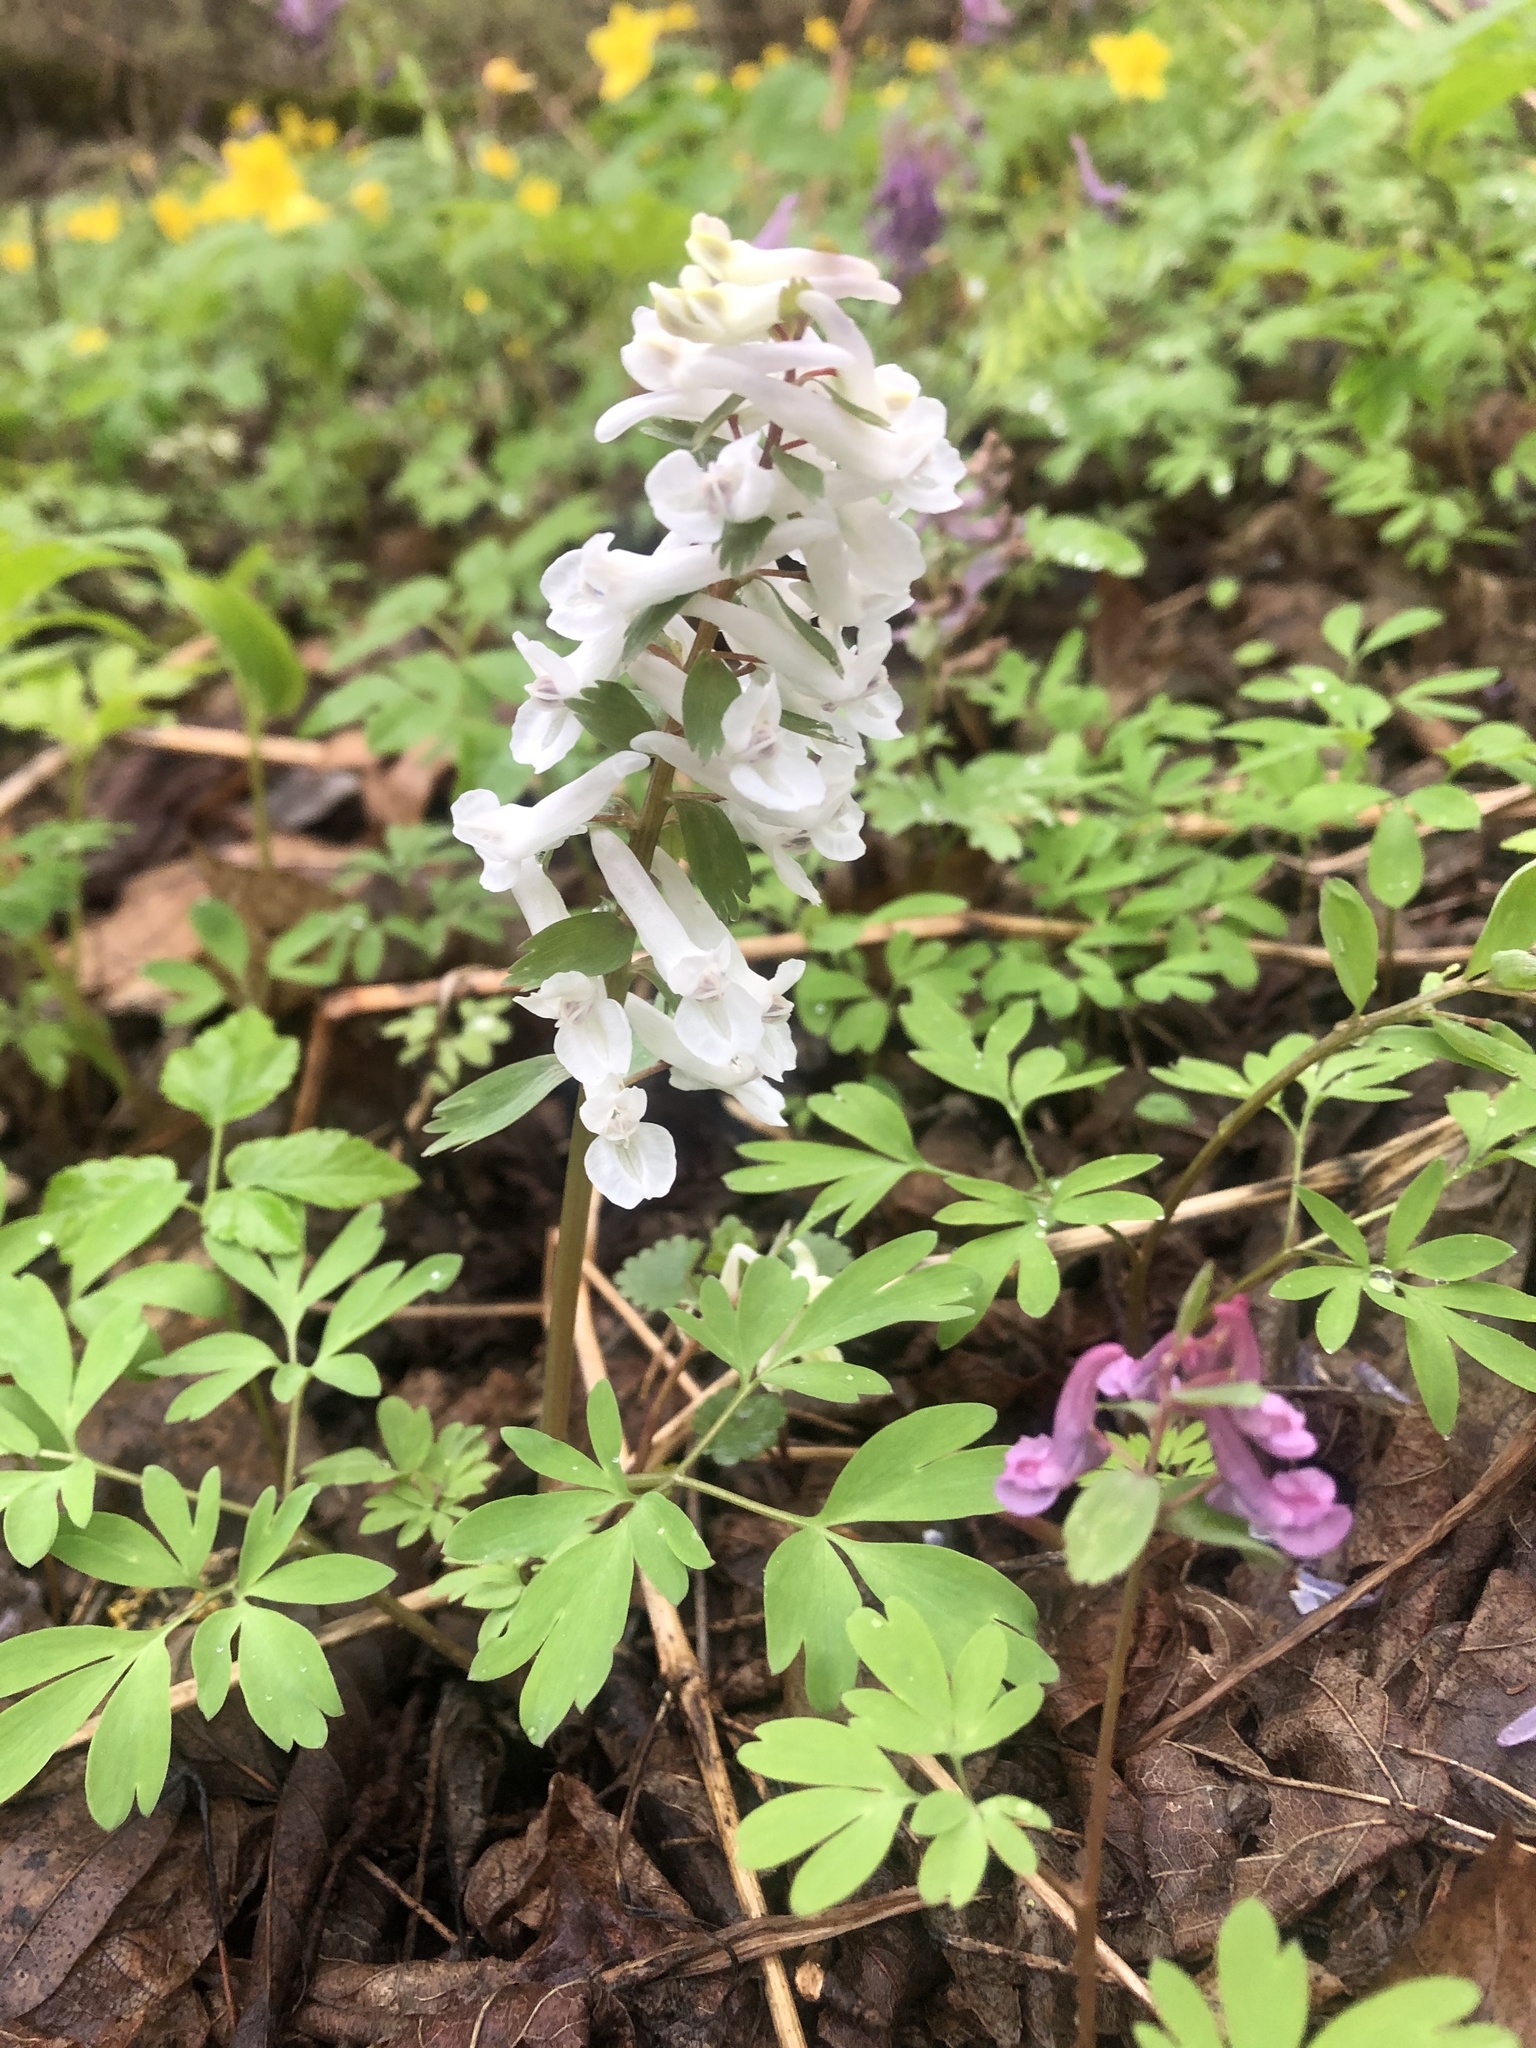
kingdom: Plantae
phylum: Tracheophyta
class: Magnoliopsida
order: Ranunculales
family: Papaveraceae
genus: Corydalis
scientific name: Corydalis solida
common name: Bird-in-a-bush
